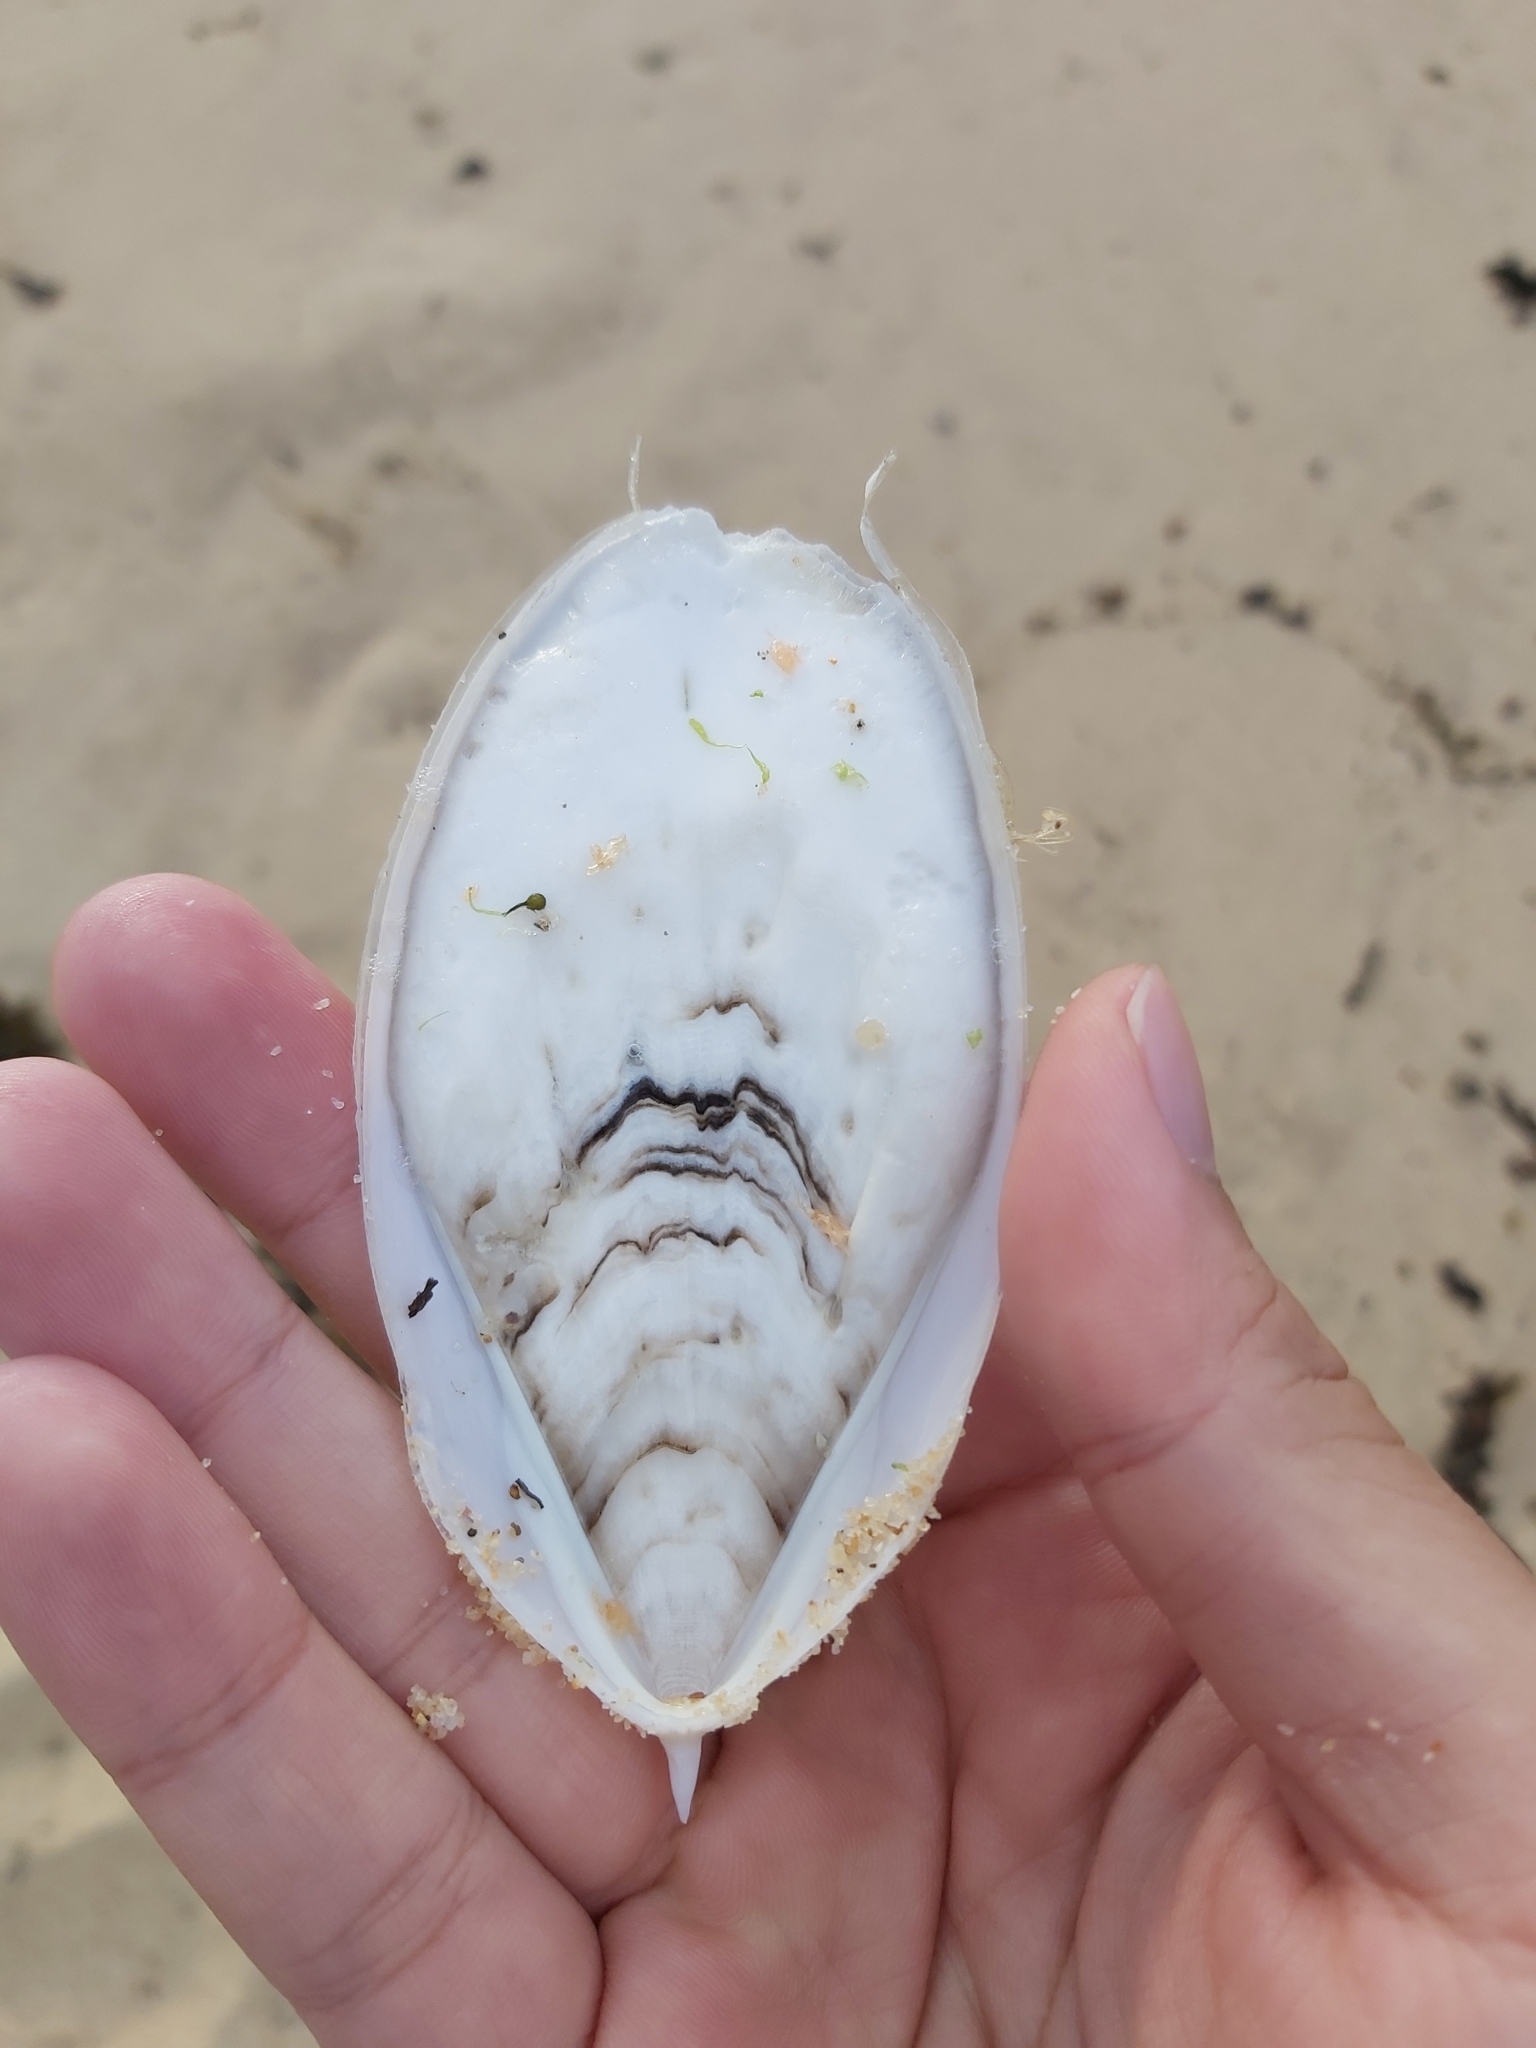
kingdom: Animalia
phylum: Mollusca
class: Cephalopoda
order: Sepiida
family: Sepiidae
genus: Ascarosepion
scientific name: Ascarosepion mestus
